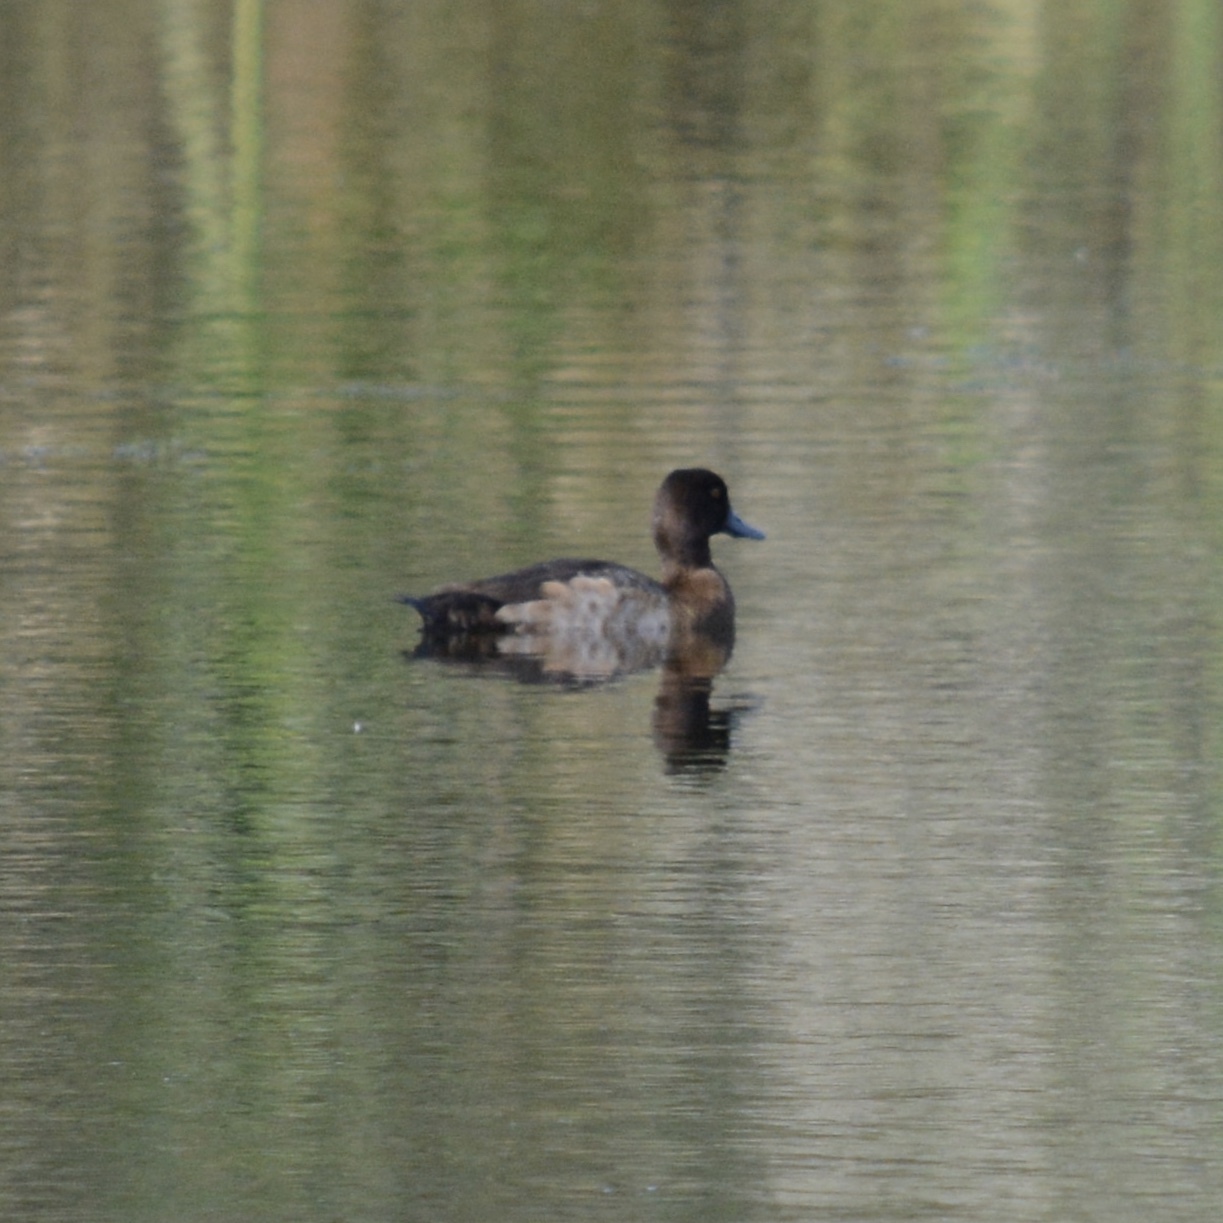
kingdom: Animalia
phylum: Chordata
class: Aves
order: Anseriformes
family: Anatidae
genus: Aythya
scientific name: Aythya affinis
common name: Lesser scaup
